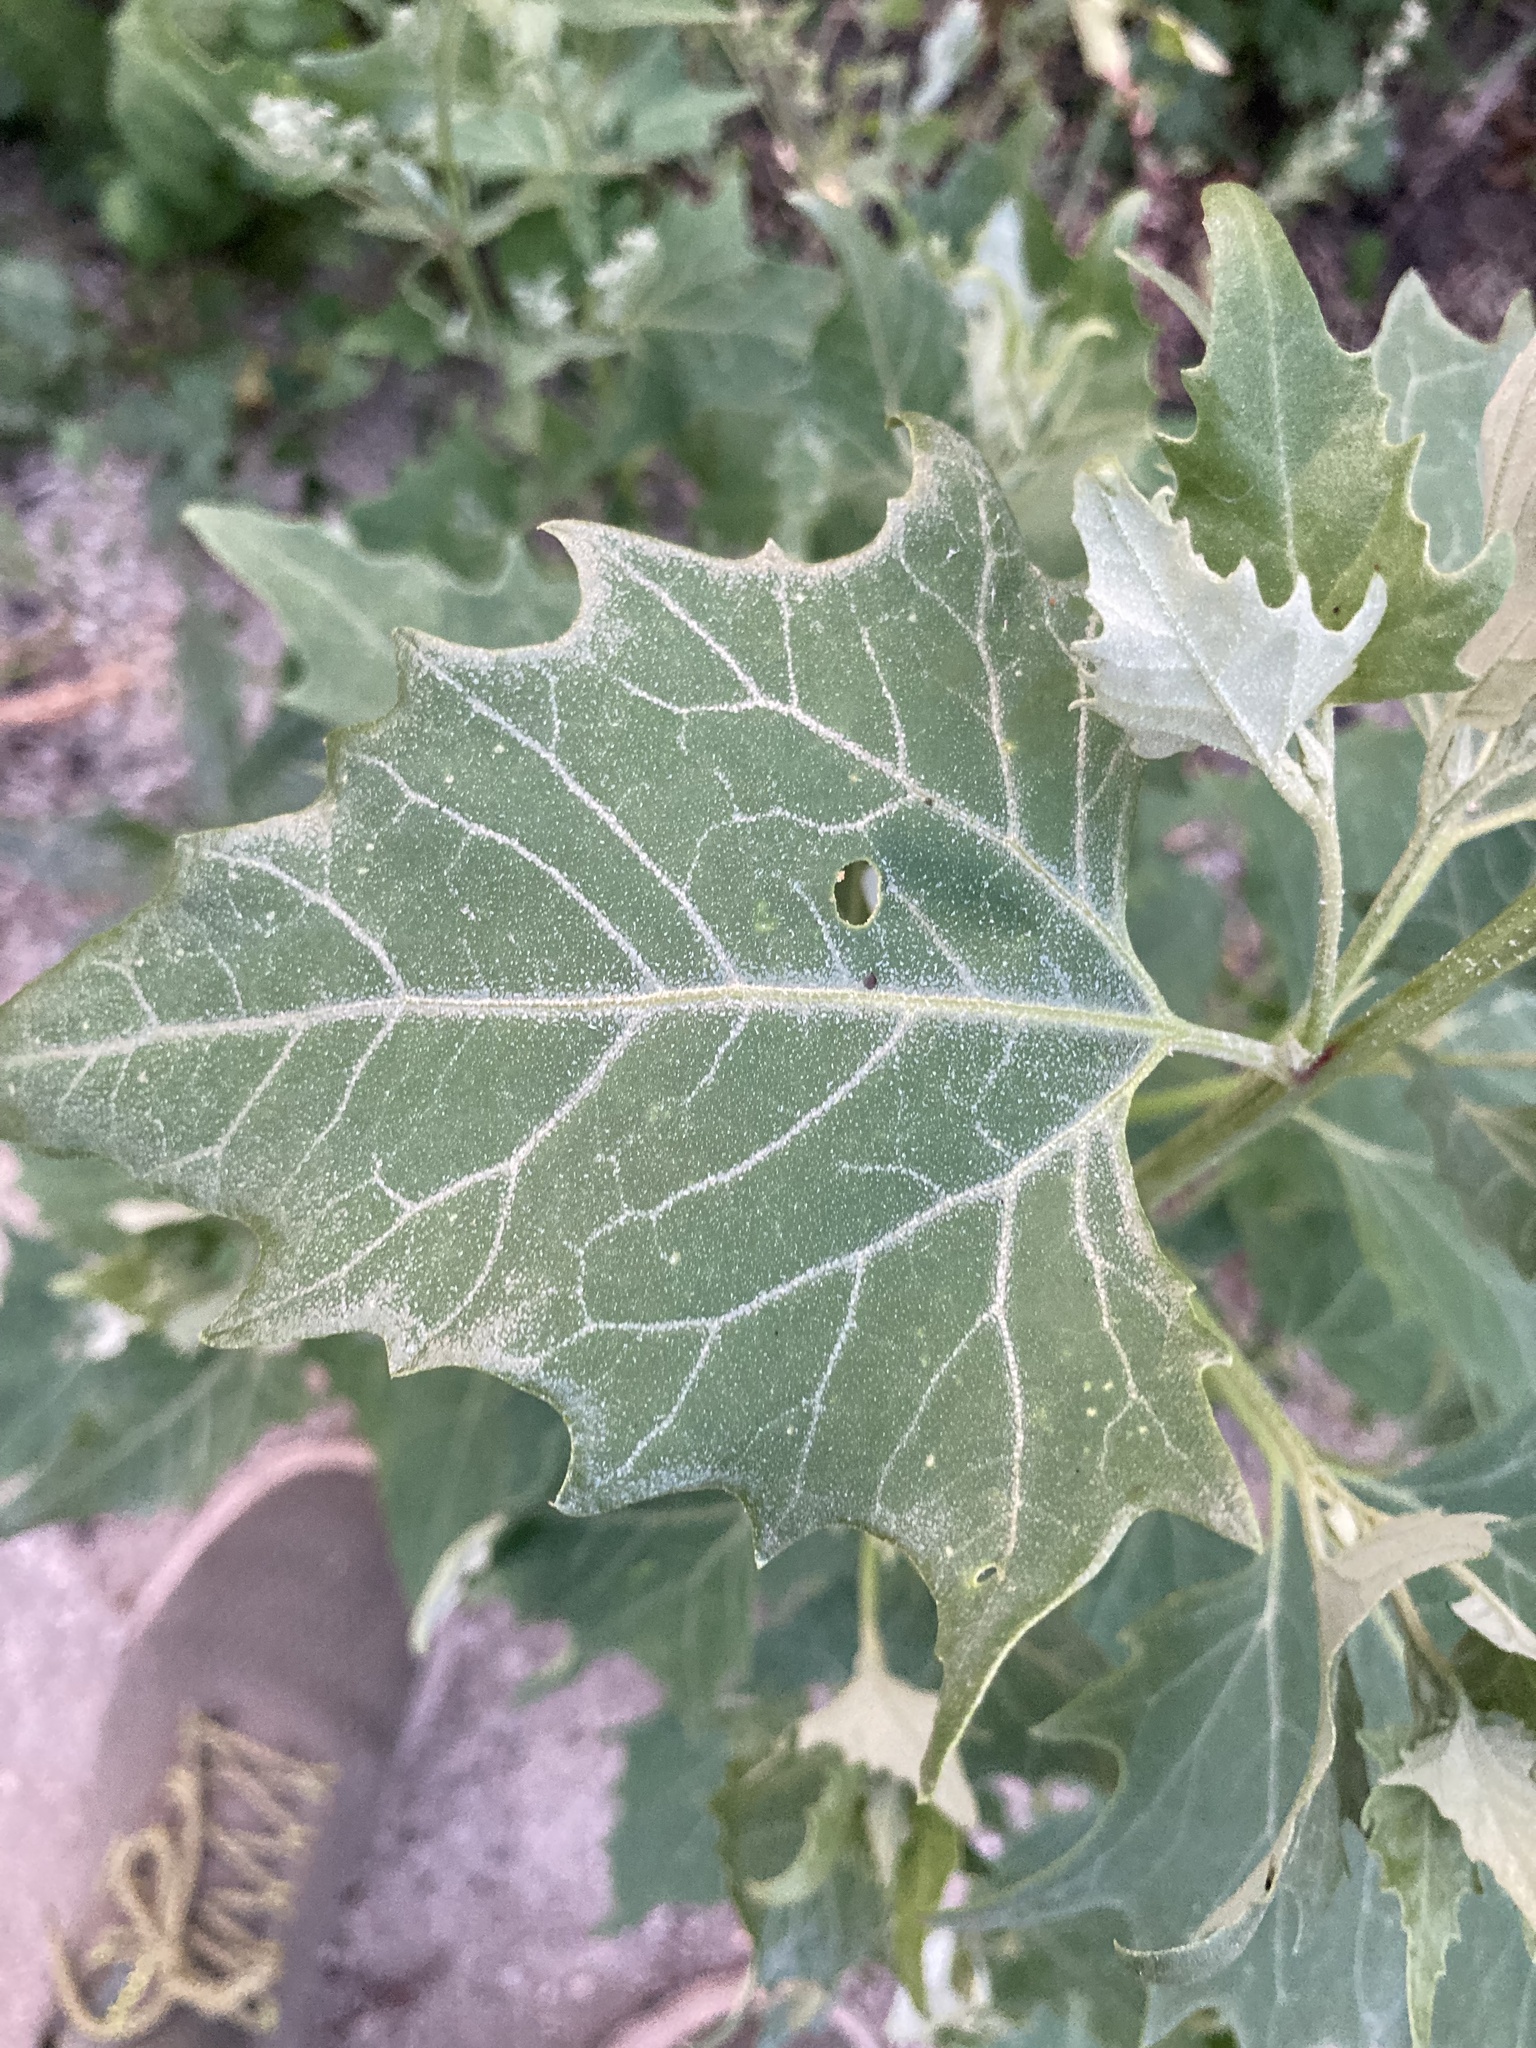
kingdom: Plantae
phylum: Tracheophyta
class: Magnoliopsida
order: Caryophyllales
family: Amaranthaceae
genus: Atriplex
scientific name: Atriplex sagittata
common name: Purple orache
